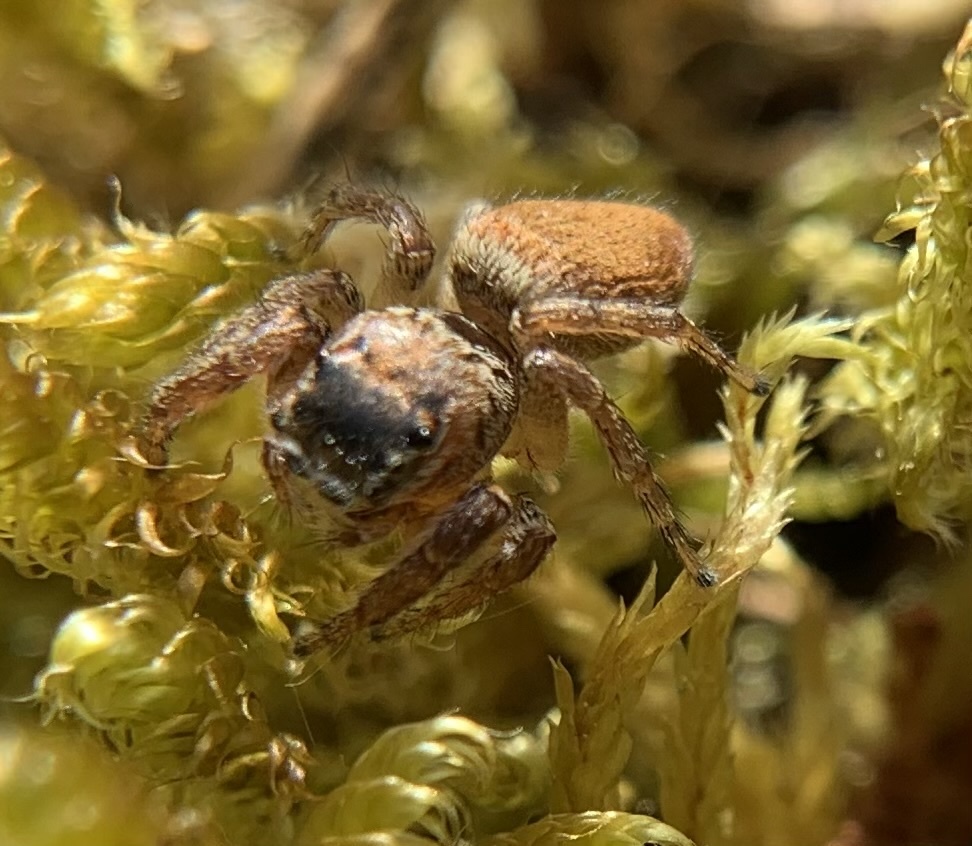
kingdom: Animalia
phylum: Arthropoda
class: Arachnida
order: Araneae
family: Salticidae
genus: Evarcha
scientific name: Evarcha falcata
